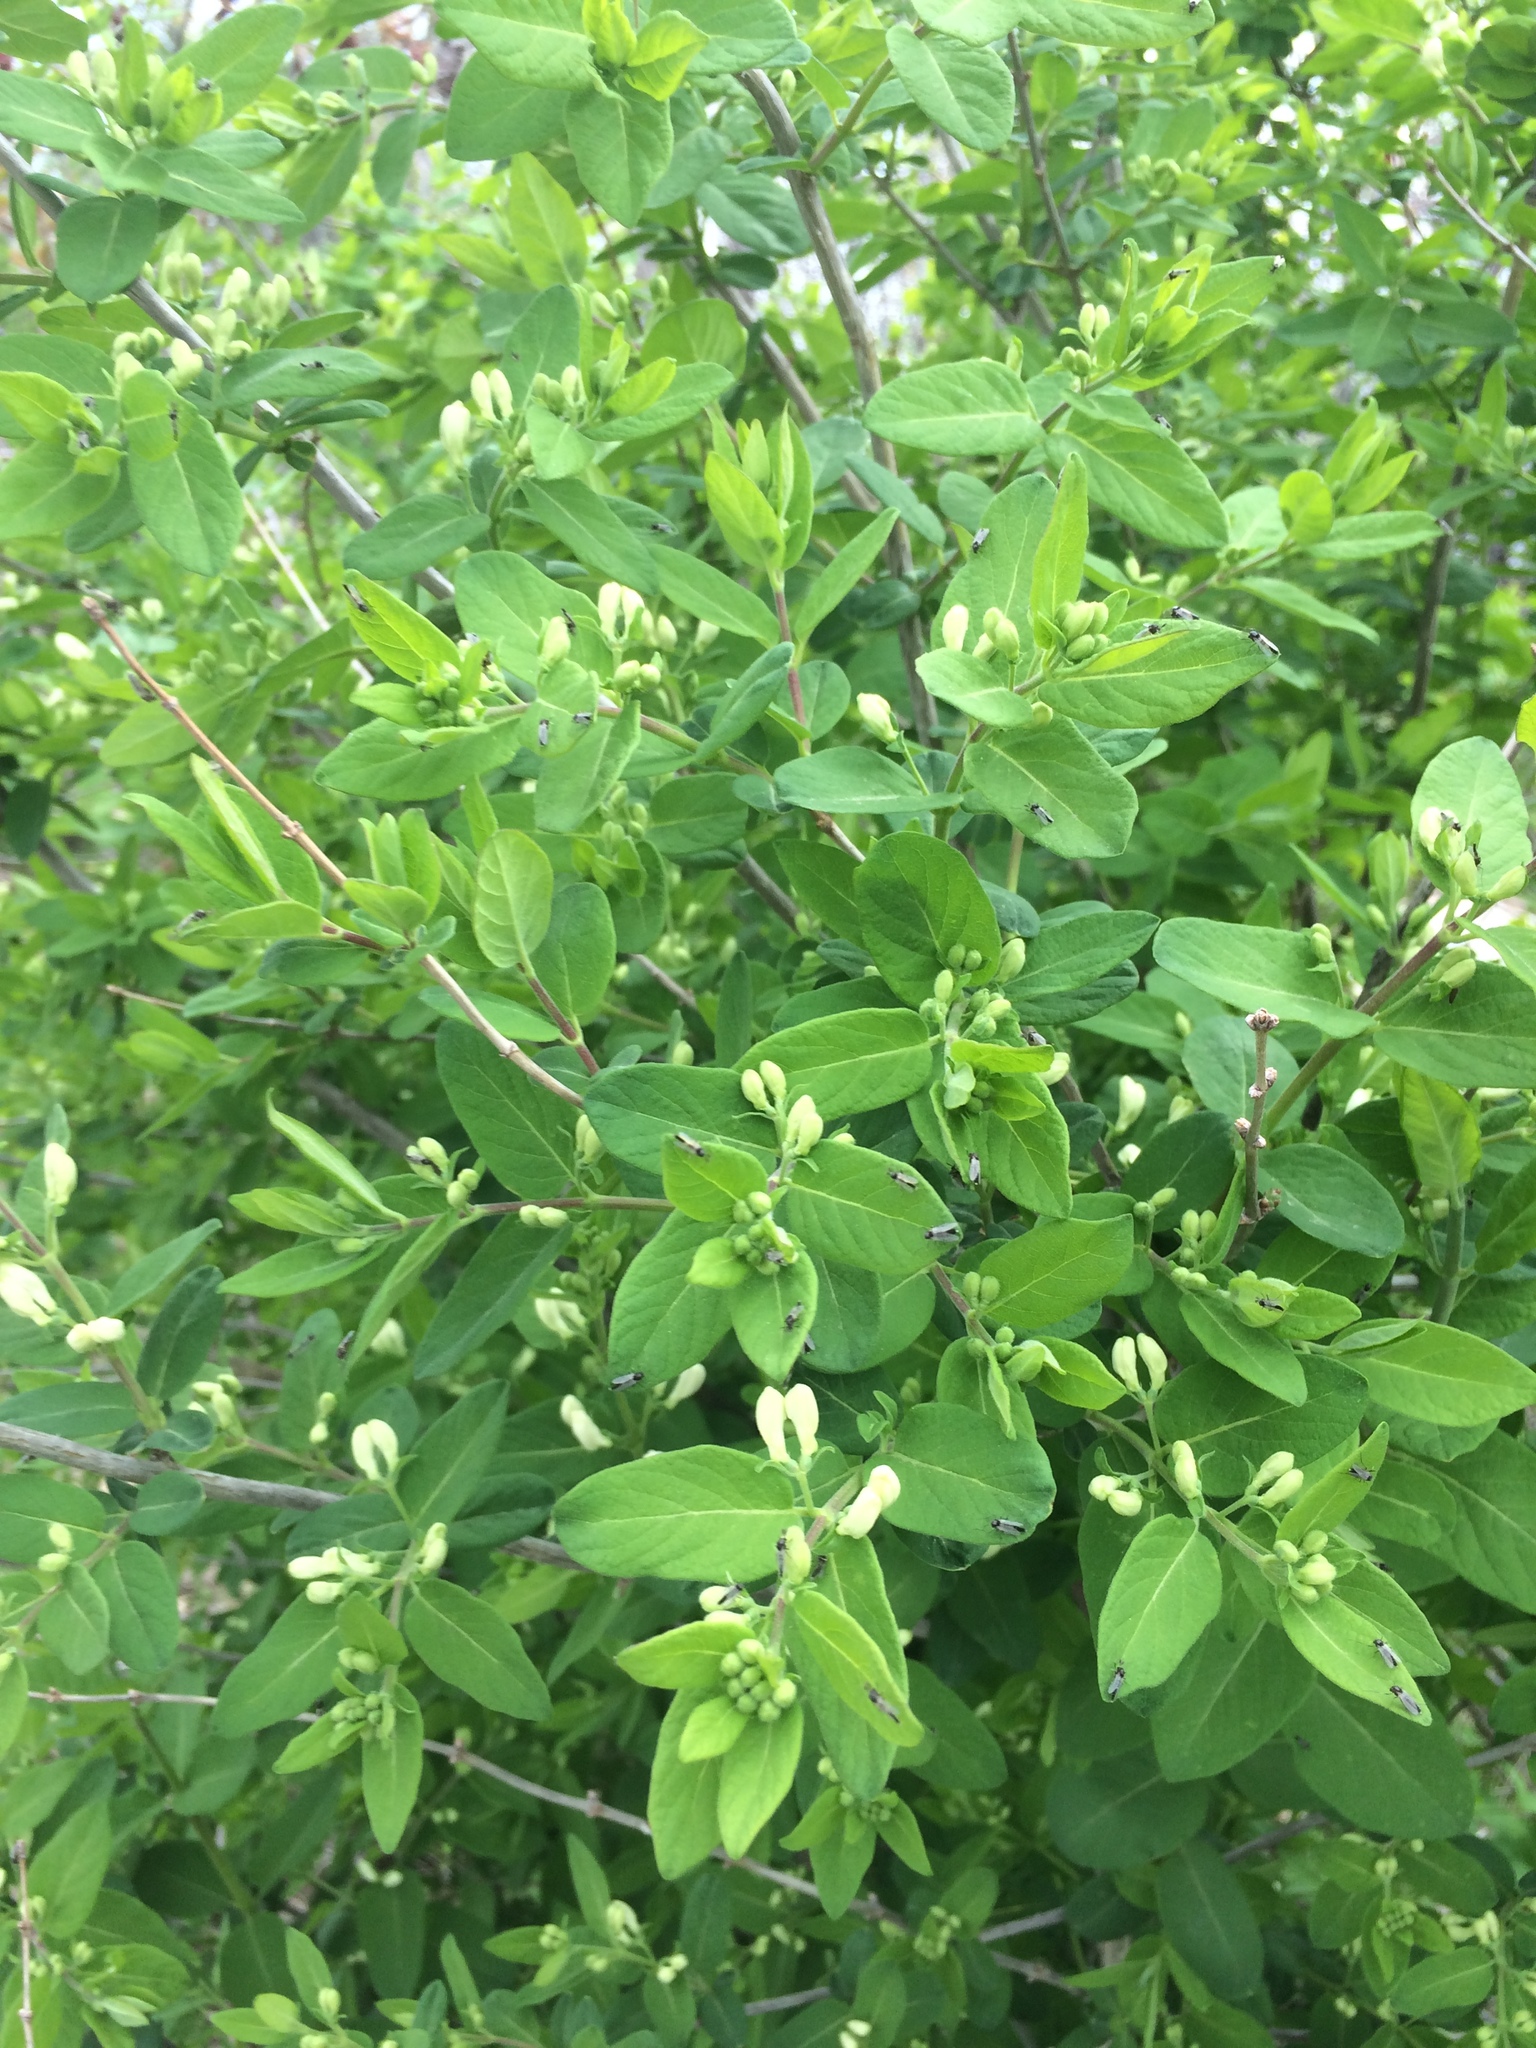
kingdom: Plantae
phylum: Tracheophyta
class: Magnoliopsida
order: Dipsacales
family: Caprifoliaceae
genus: Lonicera
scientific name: Lonicera morrowii
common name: Morrow's honeysuckle
